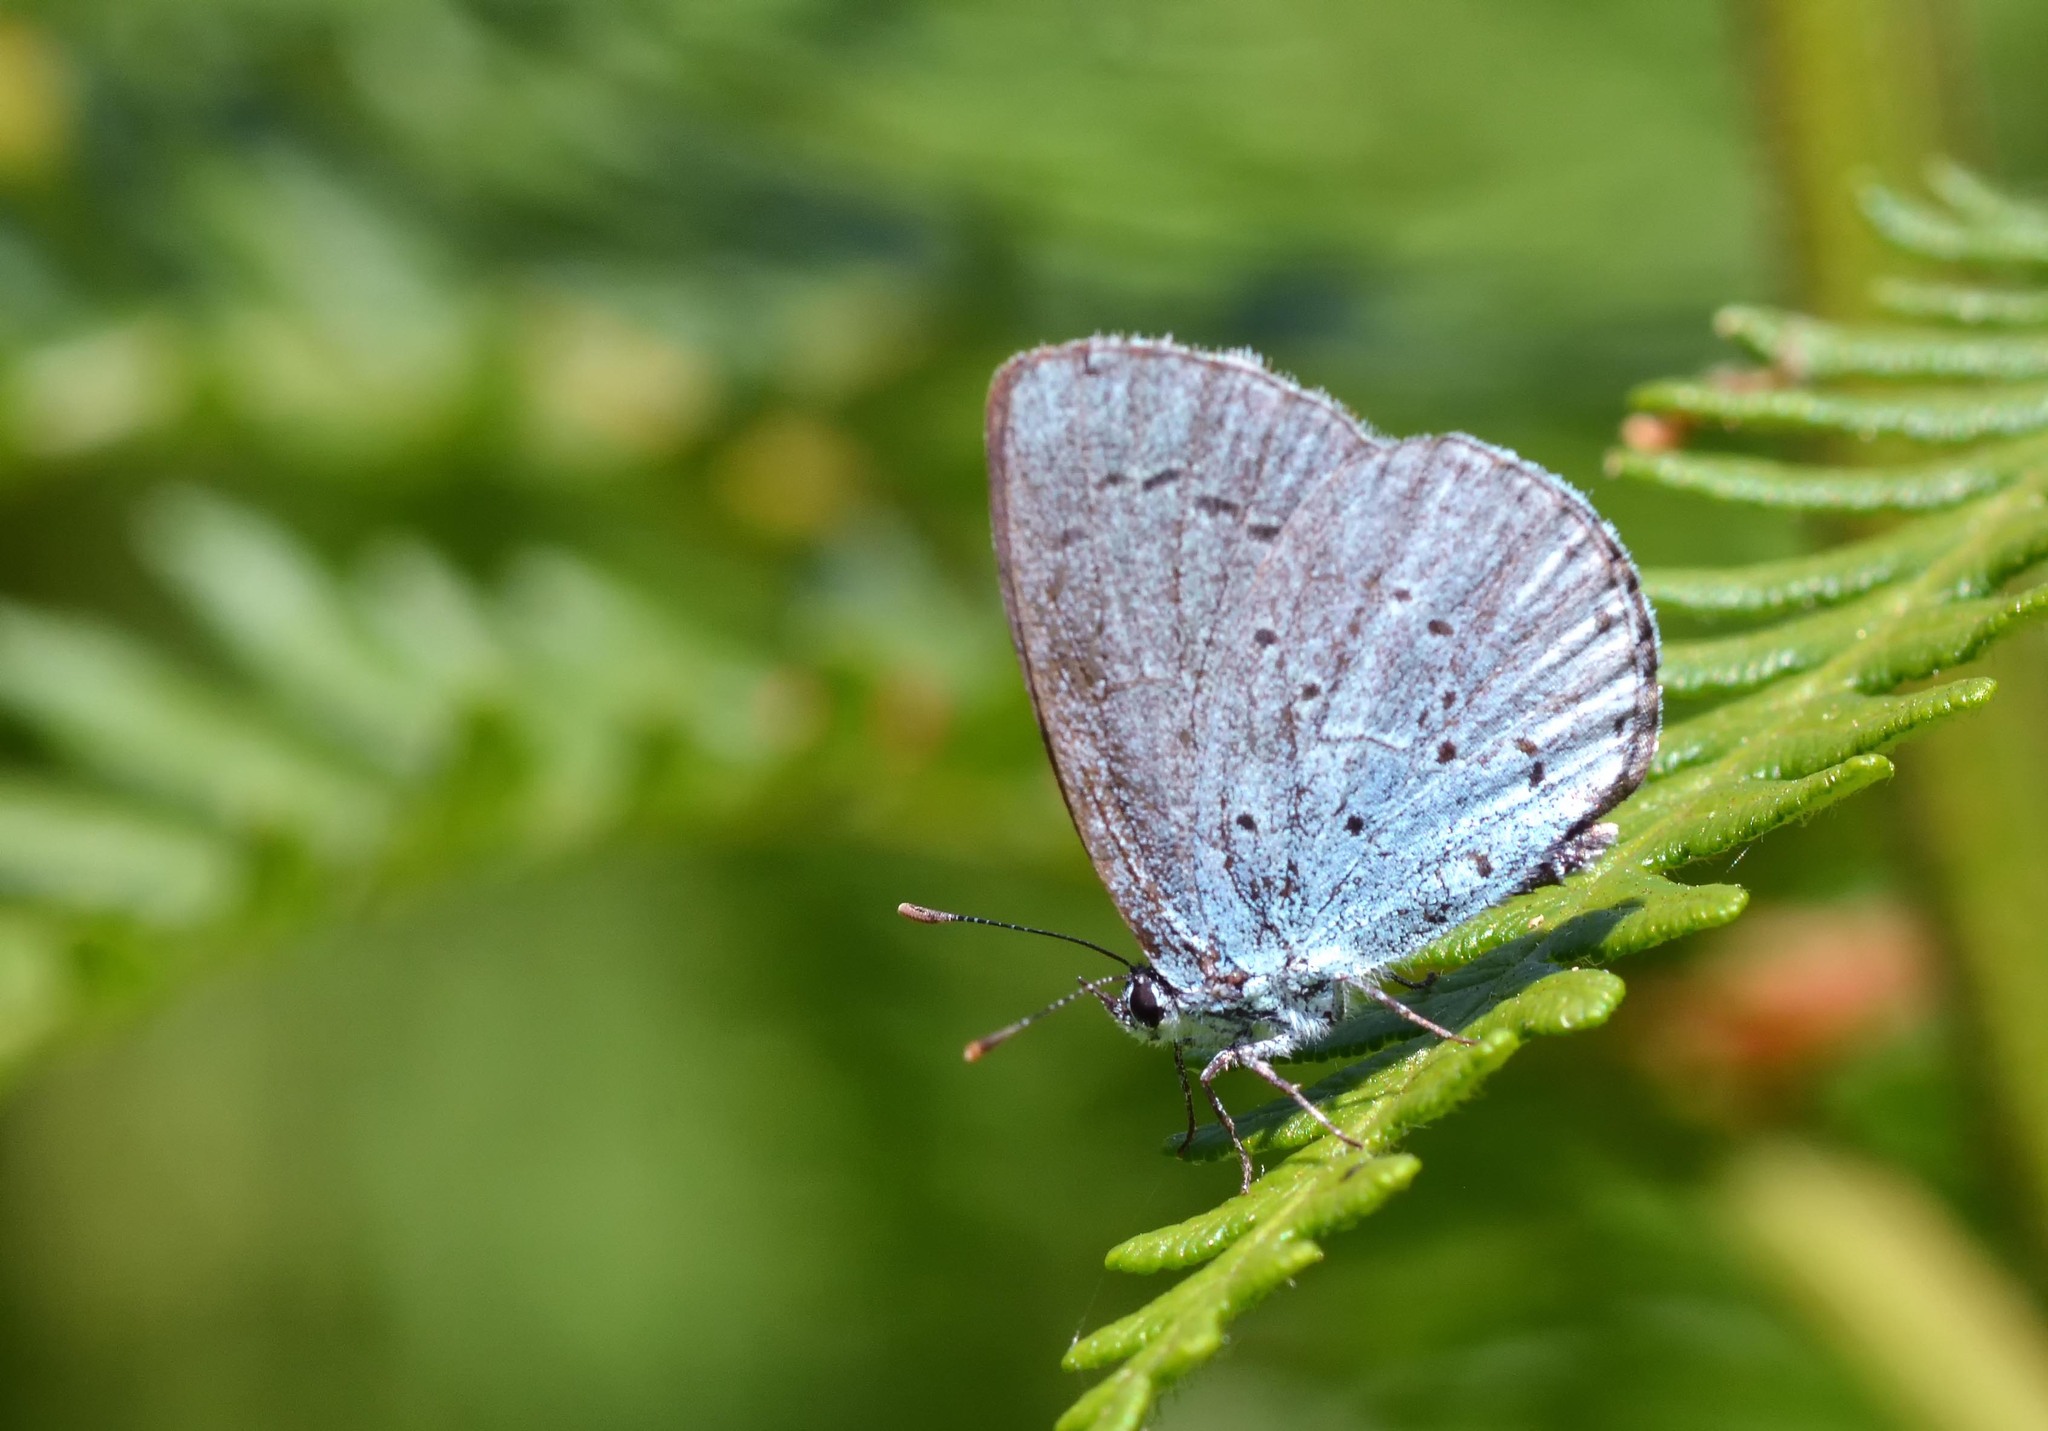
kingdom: Animalia
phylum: Arthropoda
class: Insecta
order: Lepidoptera
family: Lycaenidae
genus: Celastrina
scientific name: Celastrina argiolus
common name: Holly blue
